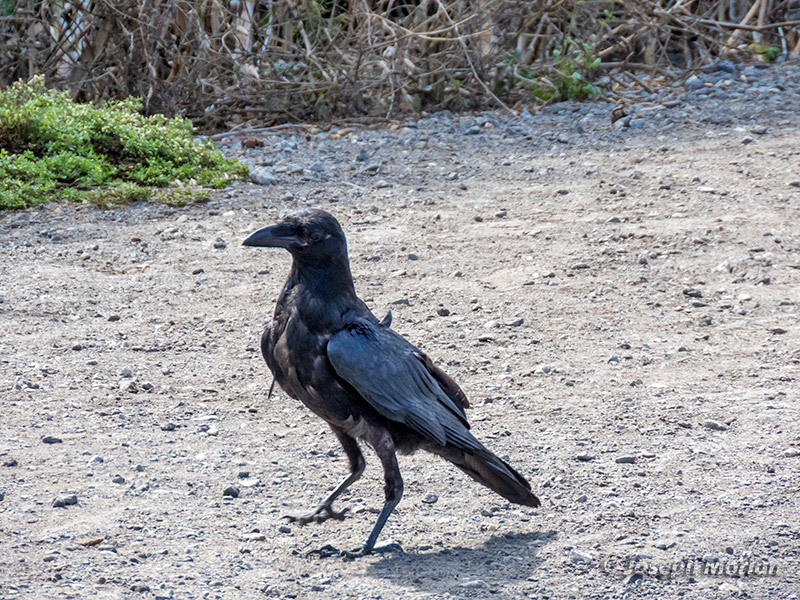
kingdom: Animalia
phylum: Chordata
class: Aves
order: Passeriformes
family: Corvidae
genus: Corvus
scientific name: Corvus corax
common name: Common raven
